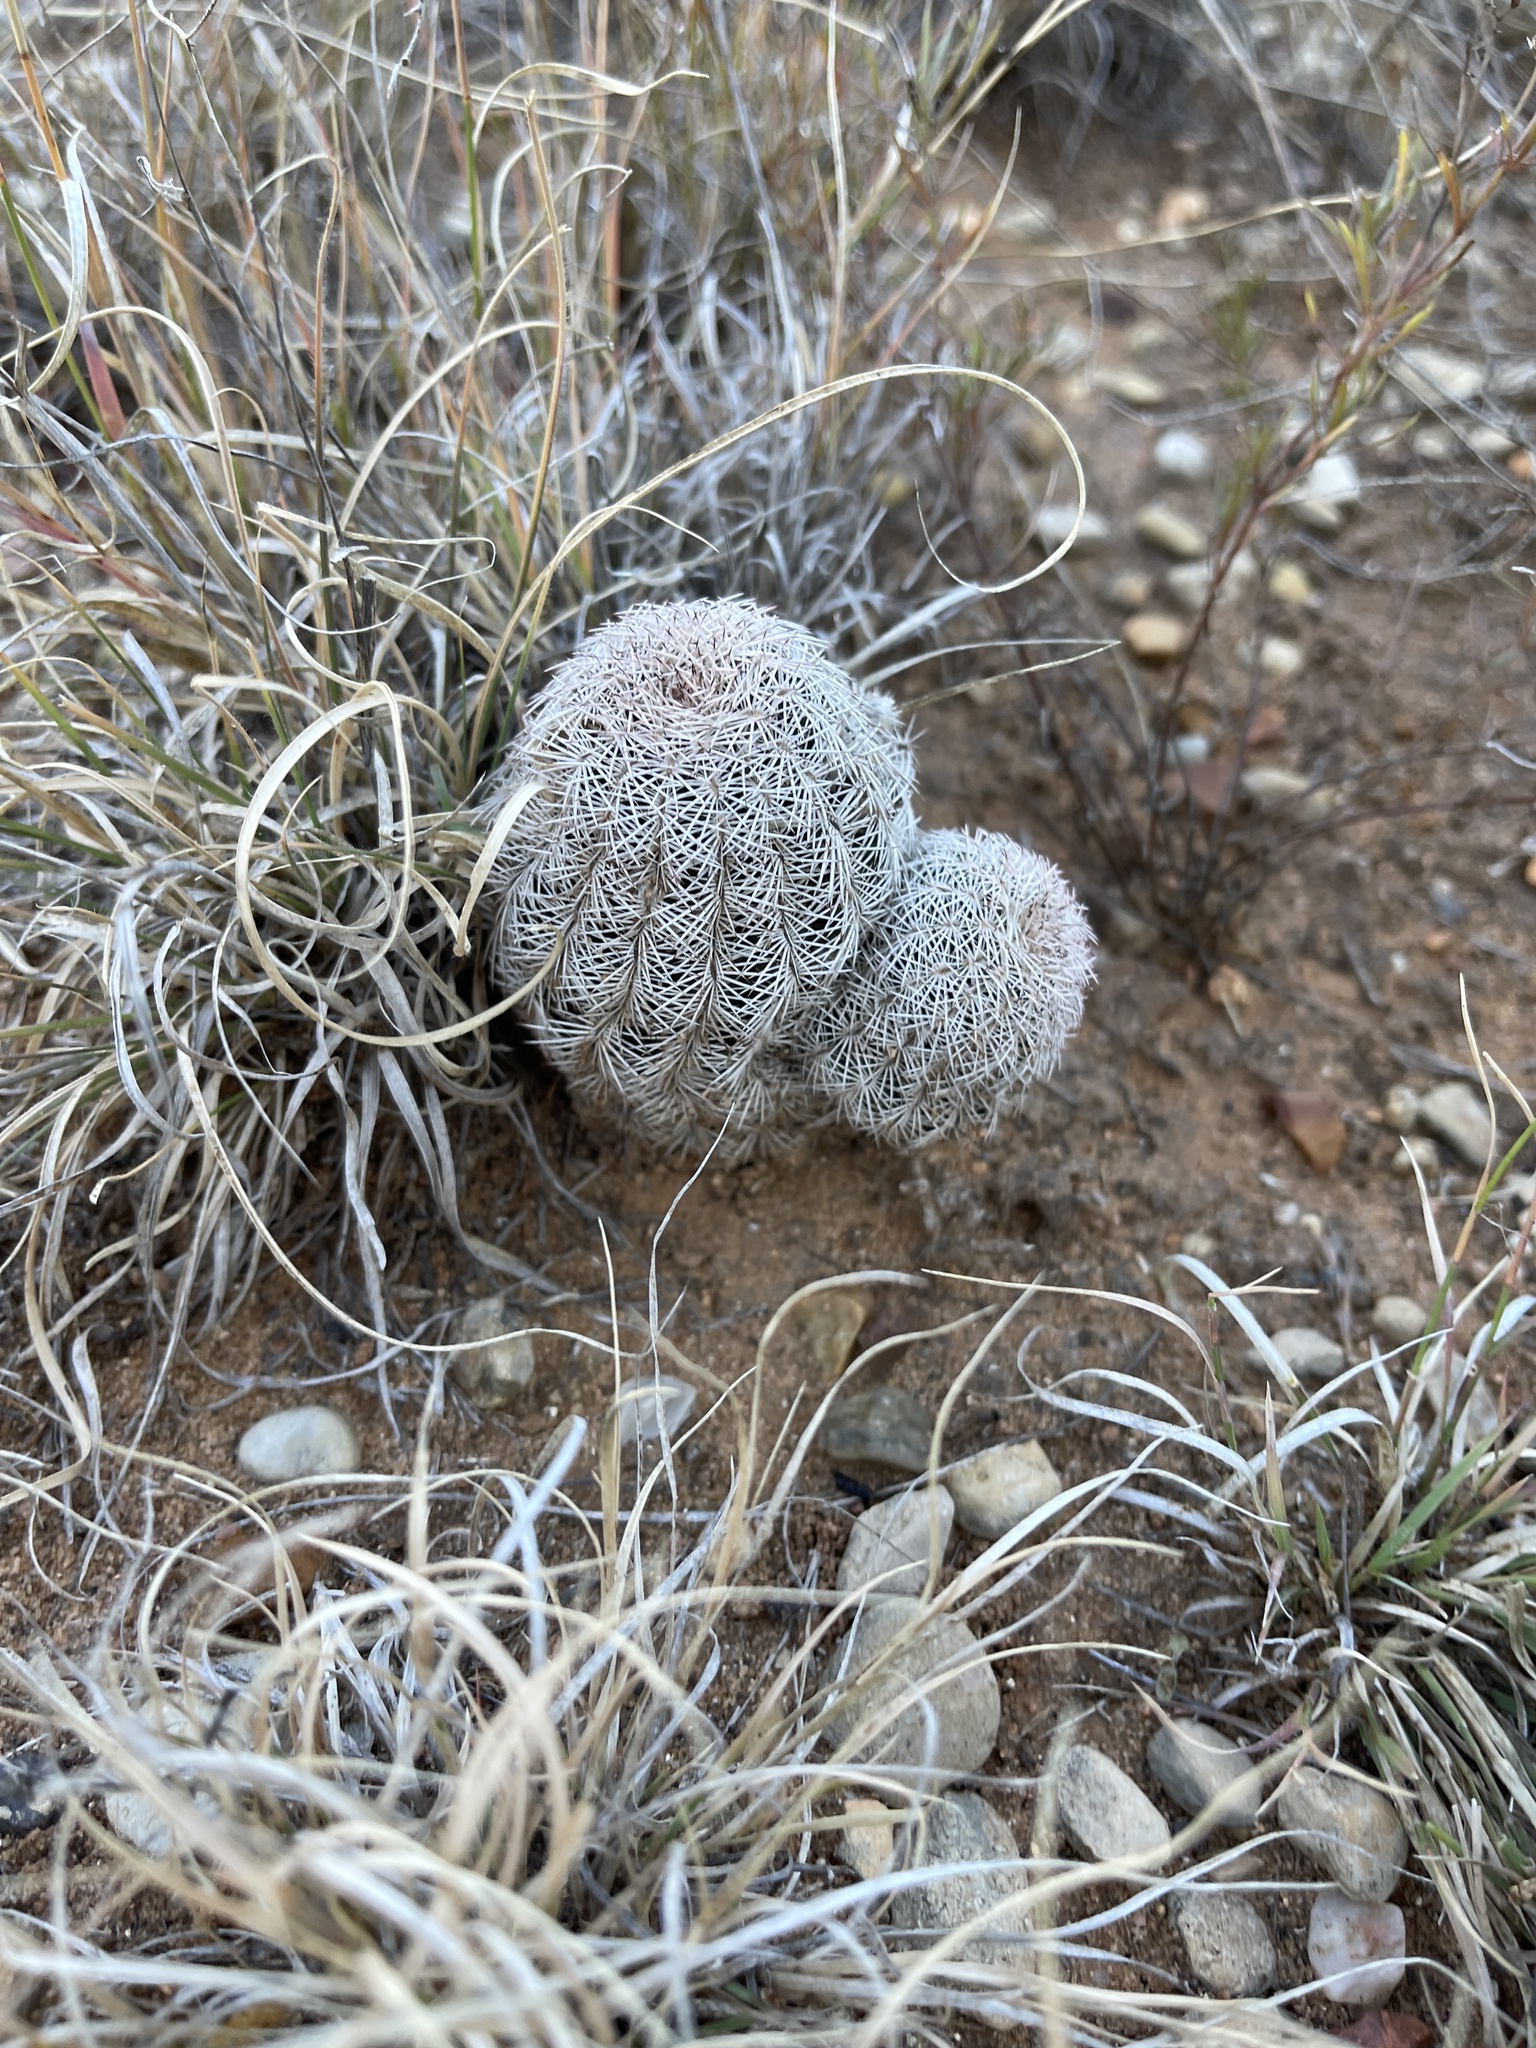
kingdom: Plantae
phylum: Tracheophyta
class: Magnoliopsida
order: Caryophyllales
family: Cactaceae
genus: Echinocereus
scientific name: Echinocereus reichenbachii
